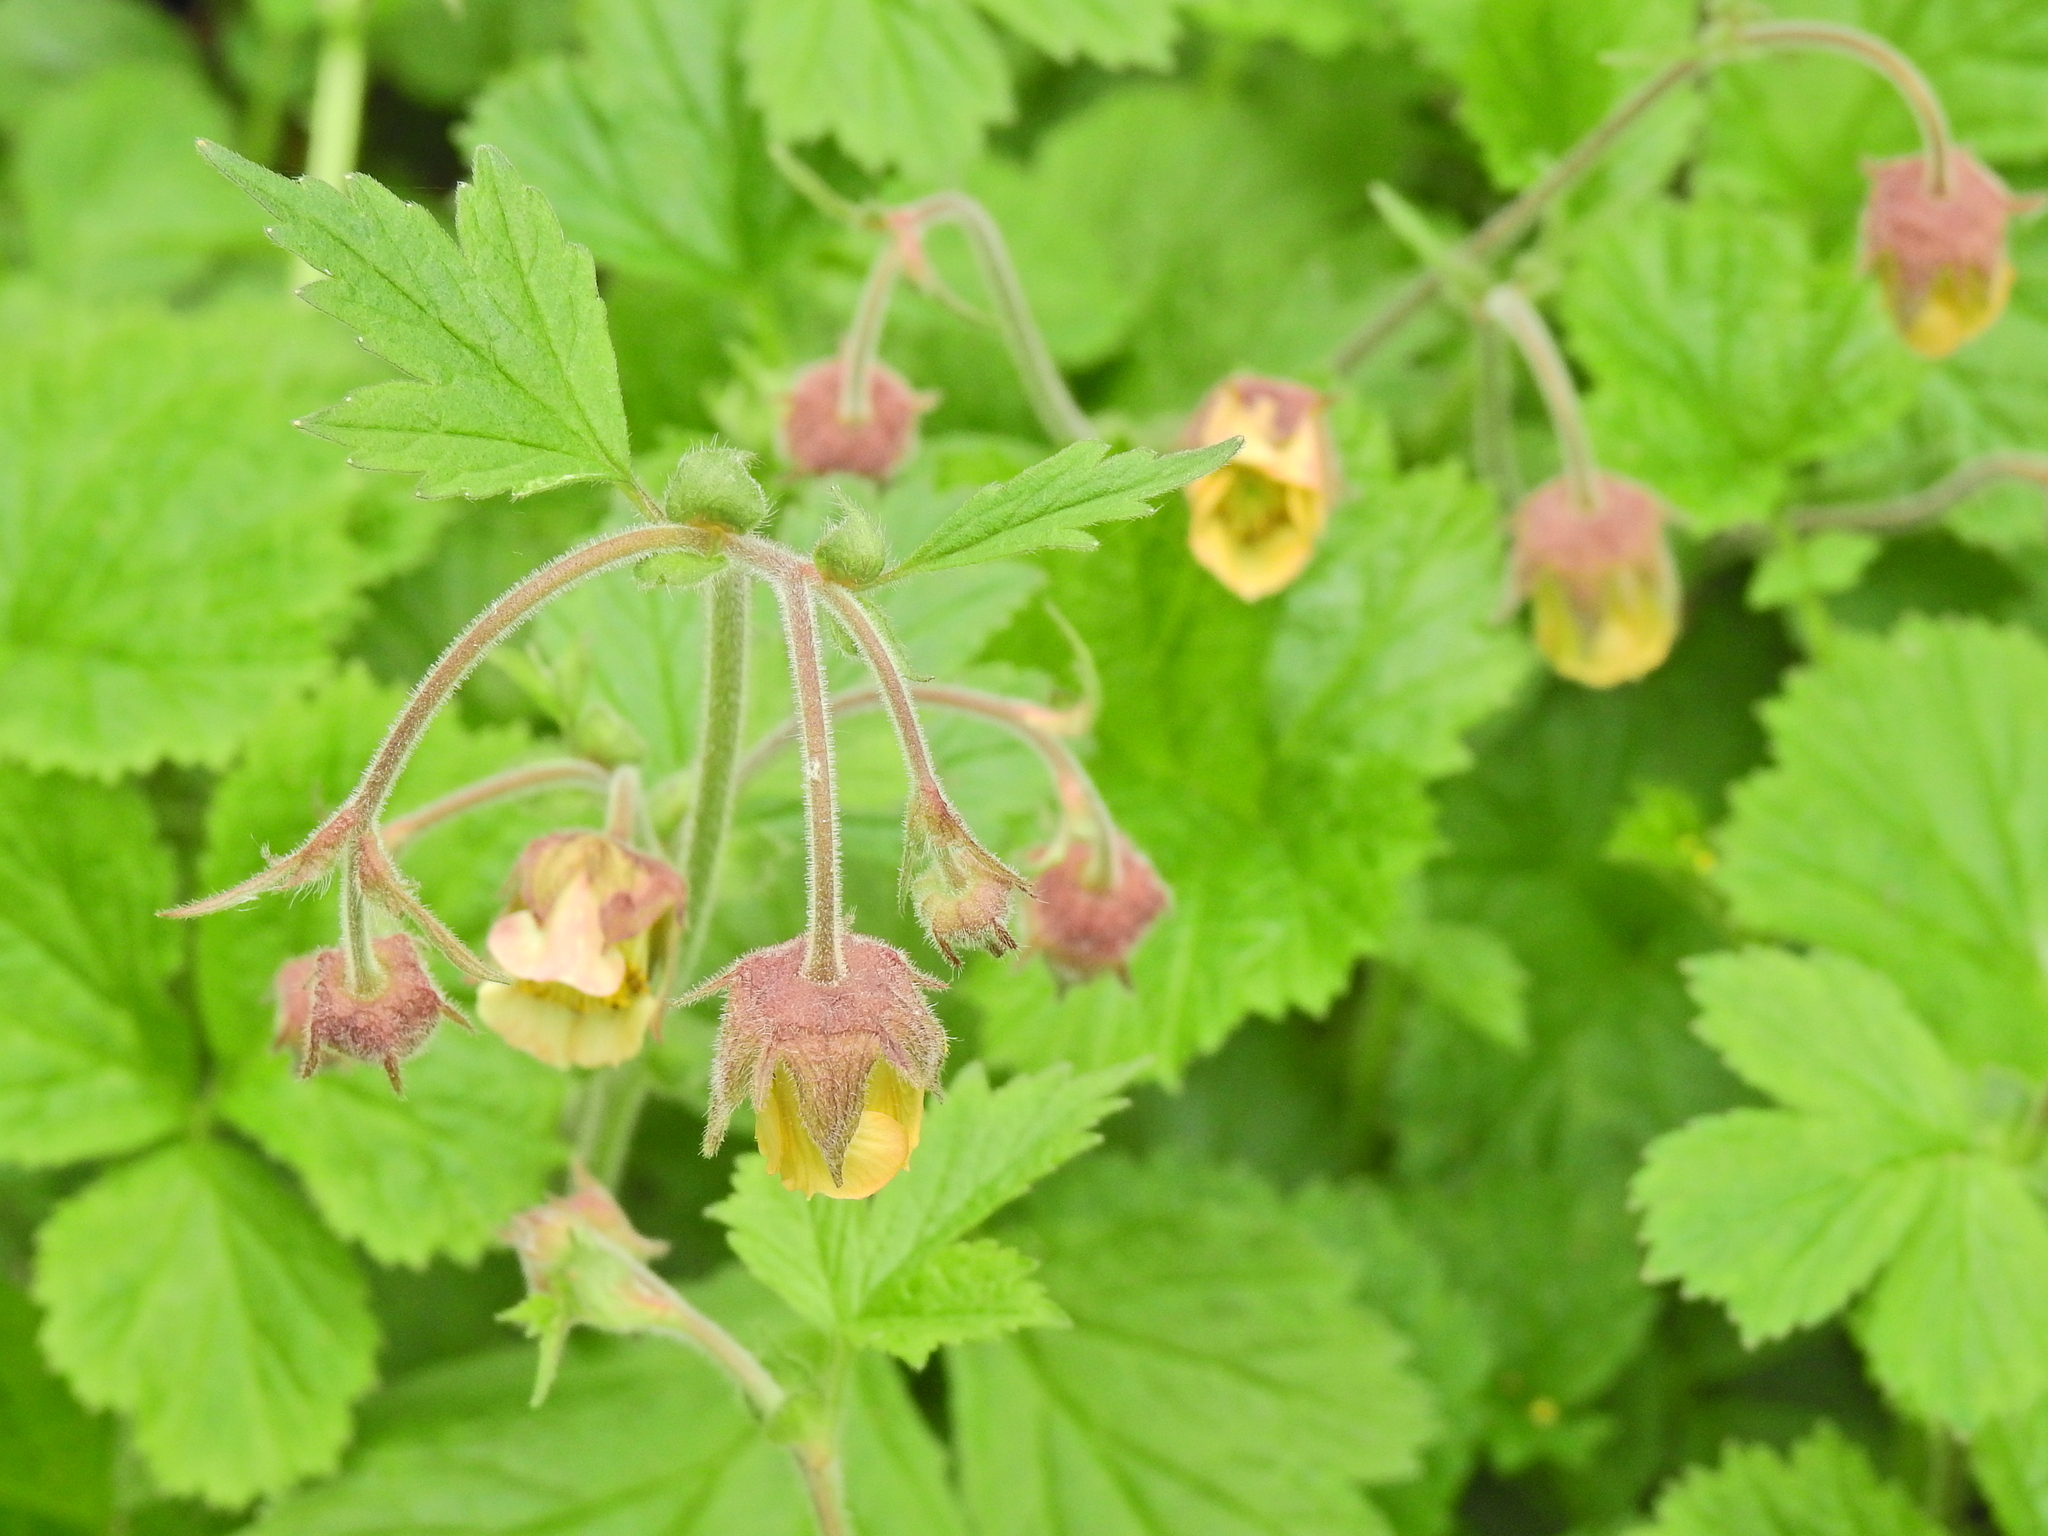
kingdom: Plantae
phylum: Tracheophyta
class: Magnoliopsida
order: Rosales
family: Rosaceae
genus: Geum
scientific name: Geum rivale
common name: Water avens
